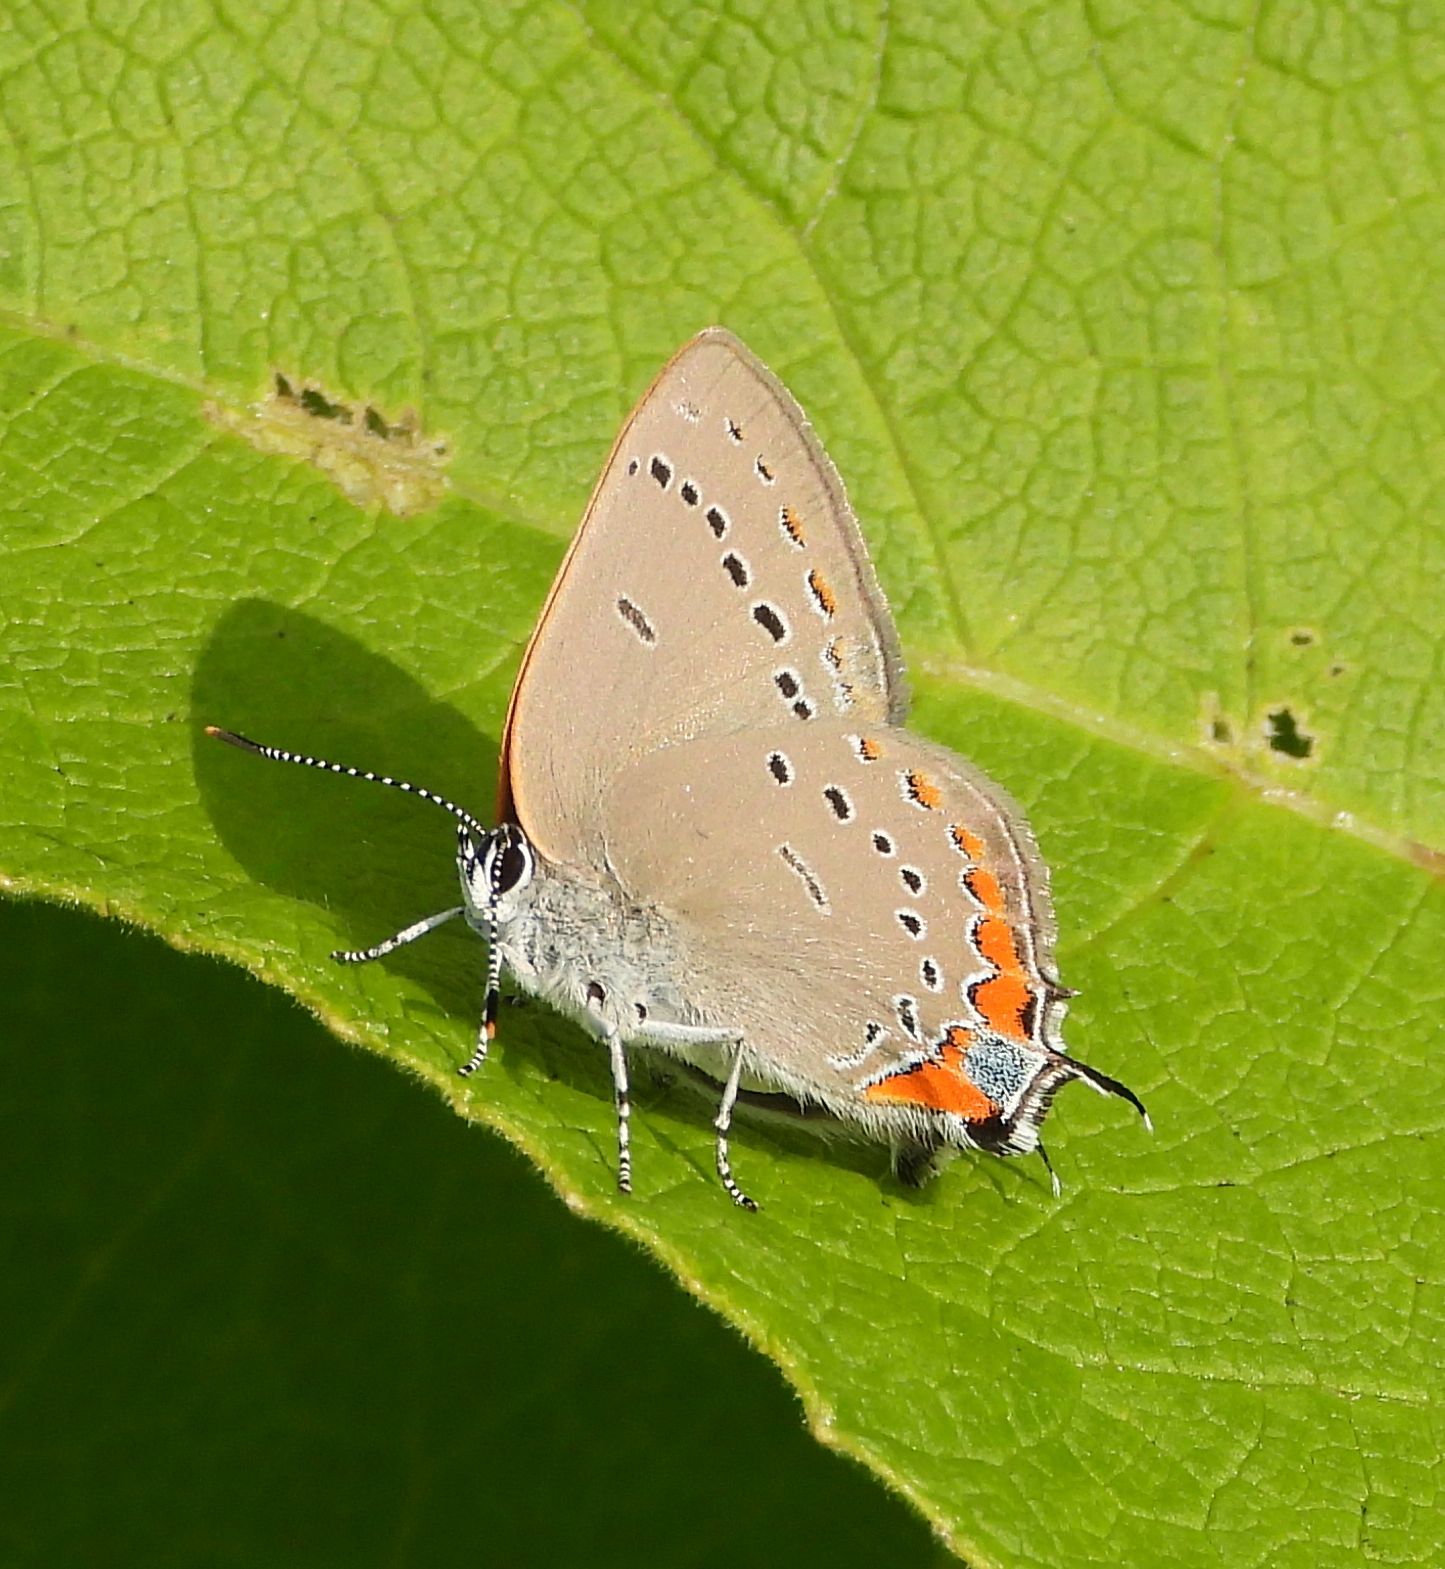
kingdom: Animalia
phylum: Arthropoda
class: Insecta
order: Lepidoptera
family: Lycaenidae
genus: Strymon
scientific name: Strymon acadica
